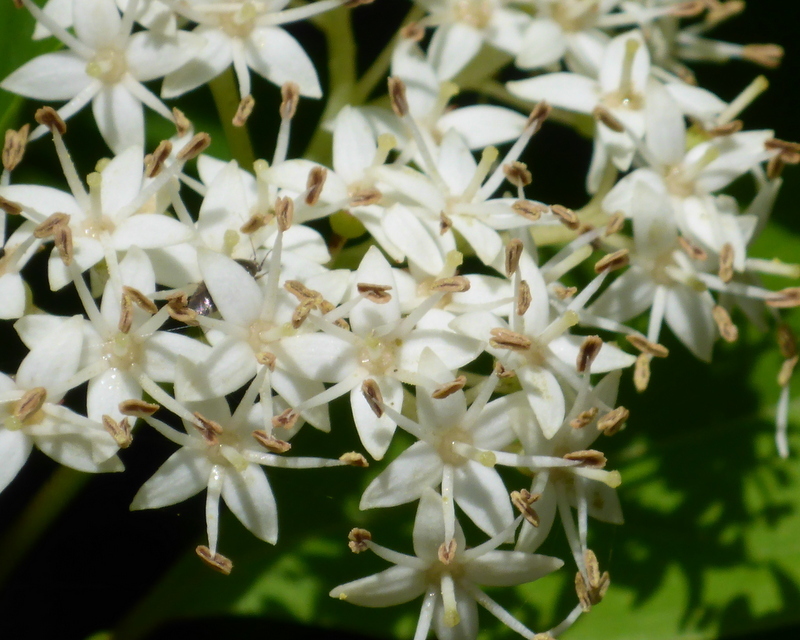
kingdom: Plantae
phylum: Tracheophyta
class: Magnoliopsida
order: Cornales
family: Cornaceae
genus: Cornus
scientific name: Cornus foemina
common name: Swamp dogwood
